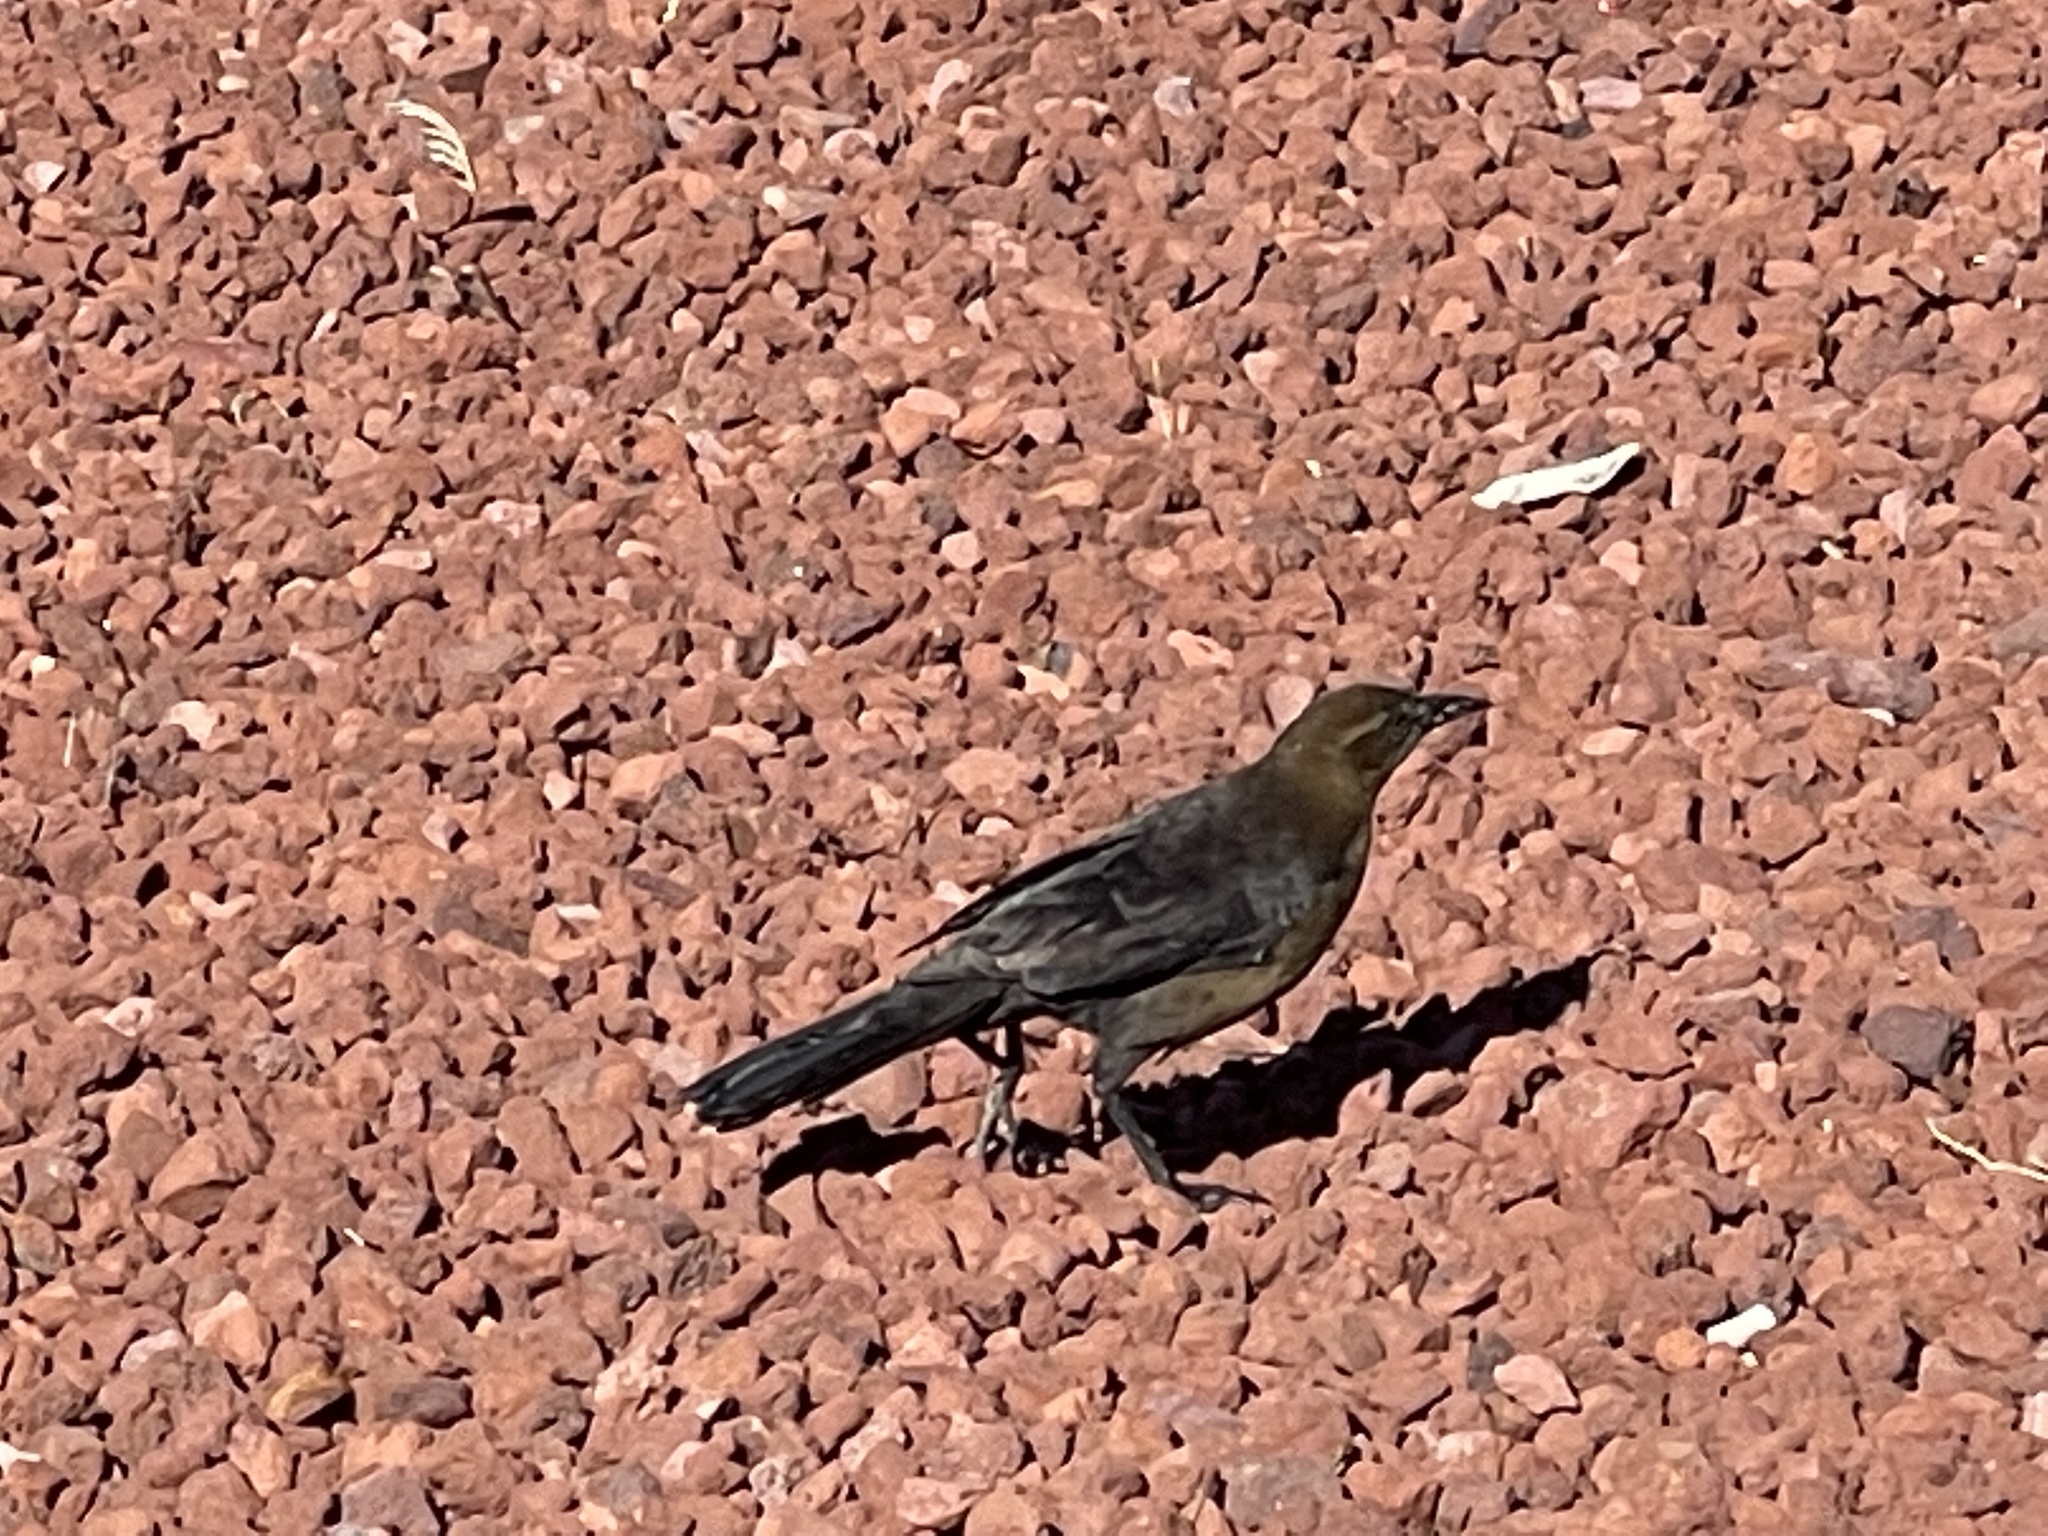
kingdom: Animalia
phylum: Chordata
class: Aves
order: Passeriformes
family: Icteridae
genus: Quiscalus
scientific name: Quiscalus mexicanus
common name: Great-tailed grackle
